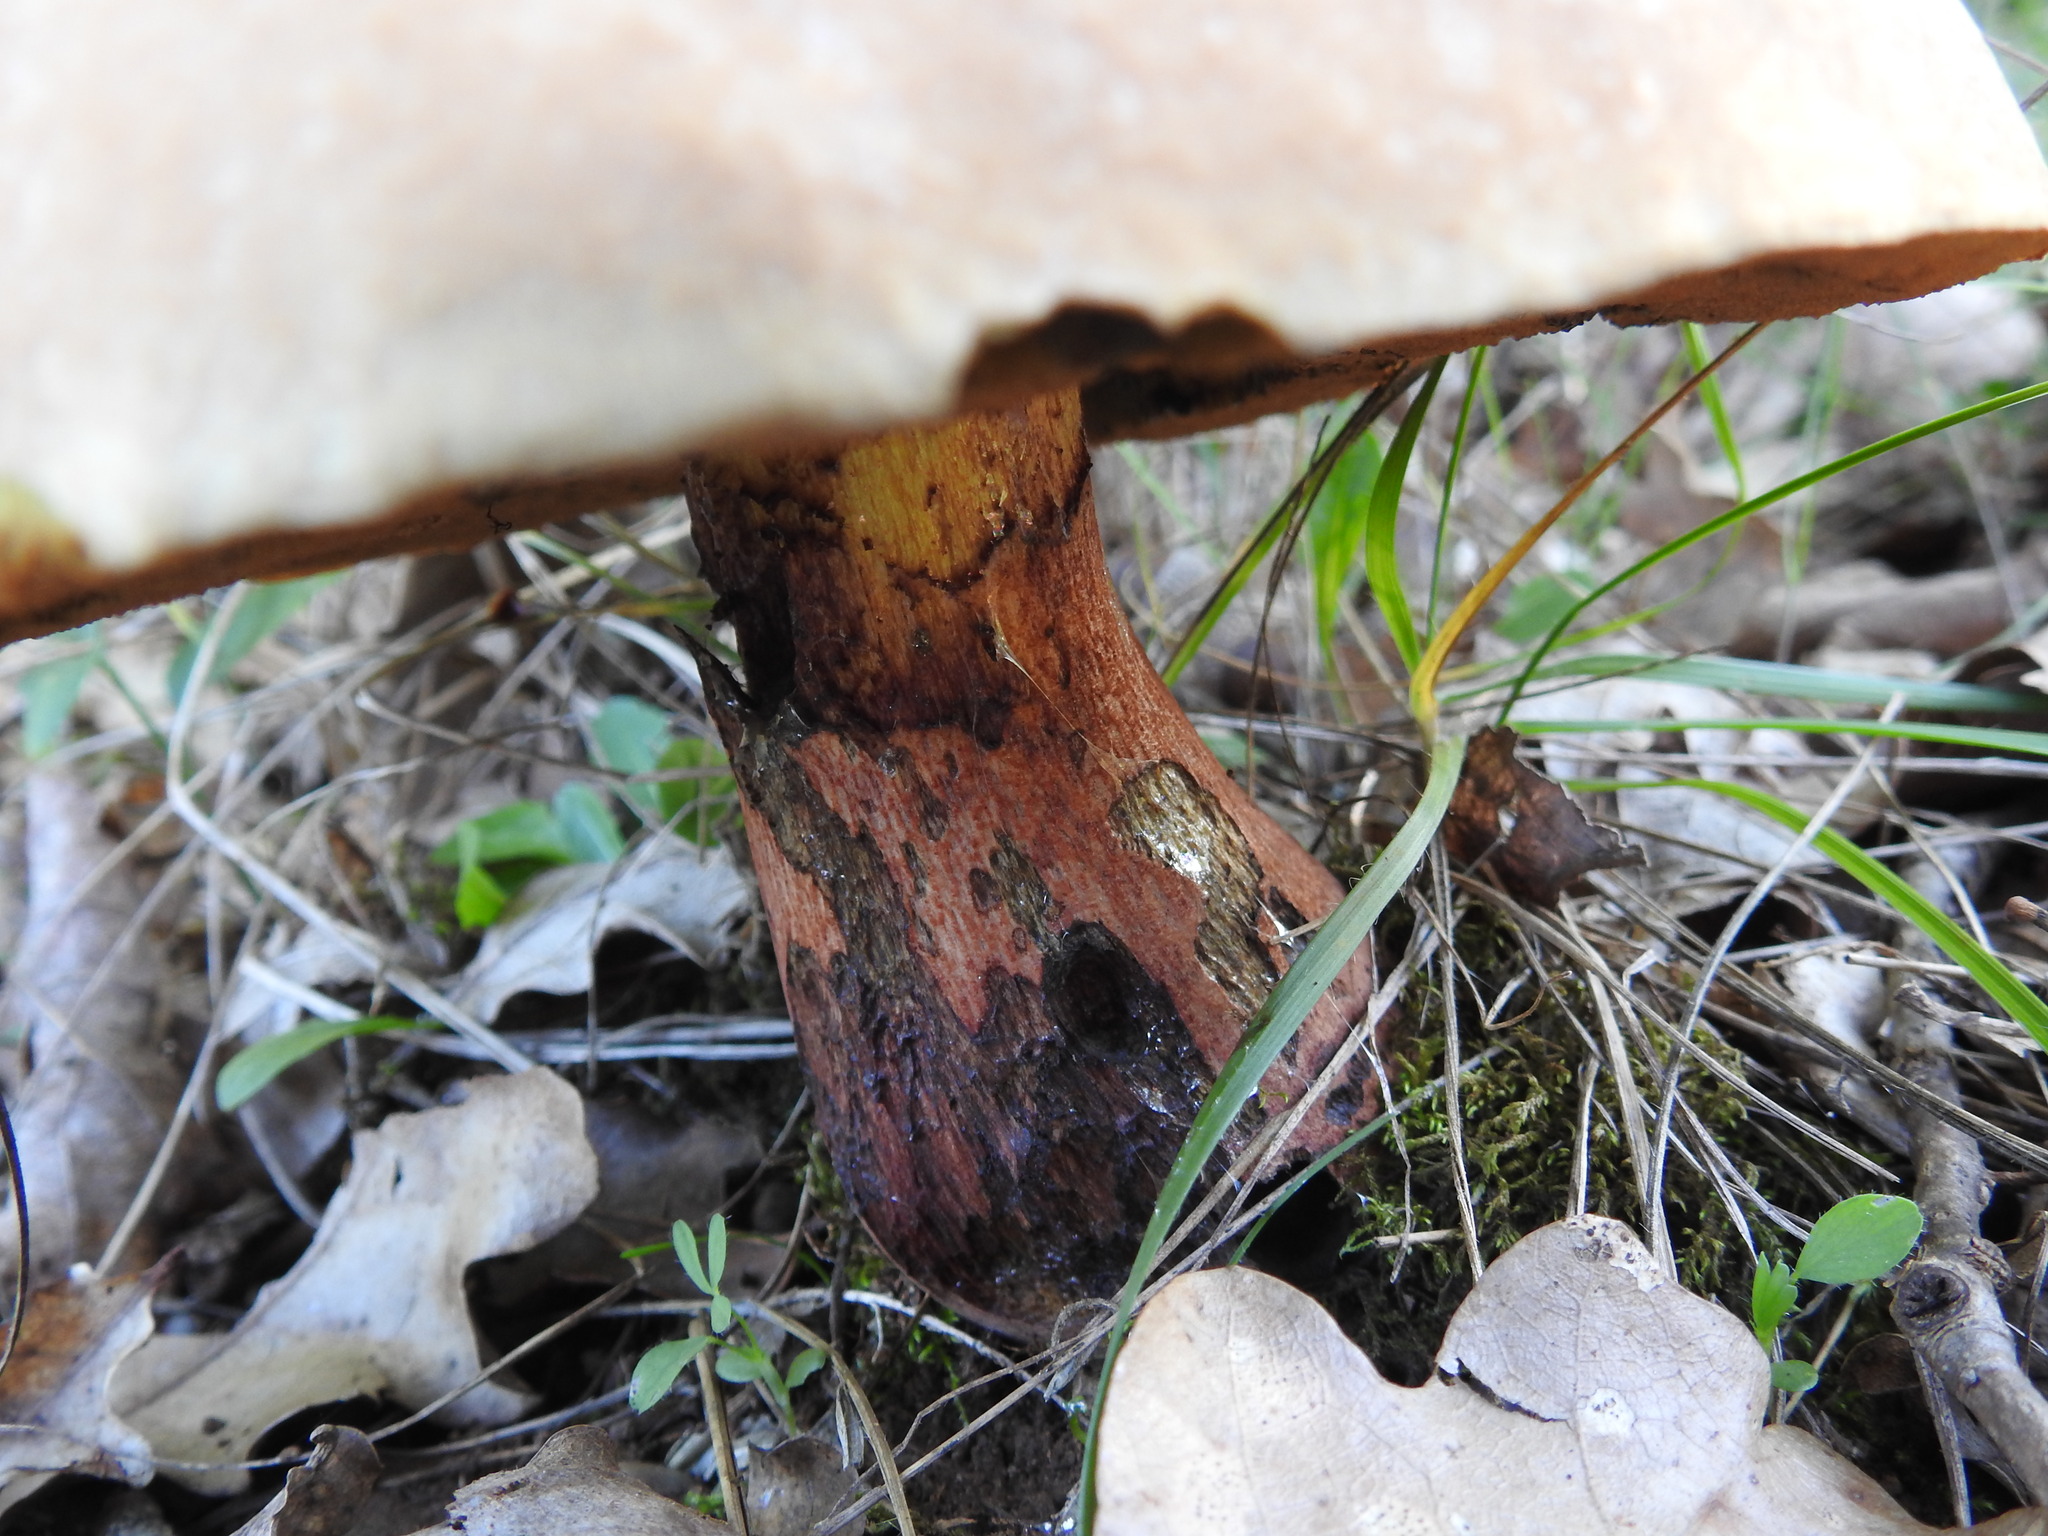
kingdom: Fungi
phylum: Basidiomycota
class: Agaricomycetes
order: Boletales
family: Boletaceae
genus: Suillellus
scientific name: Suillellus queletii
